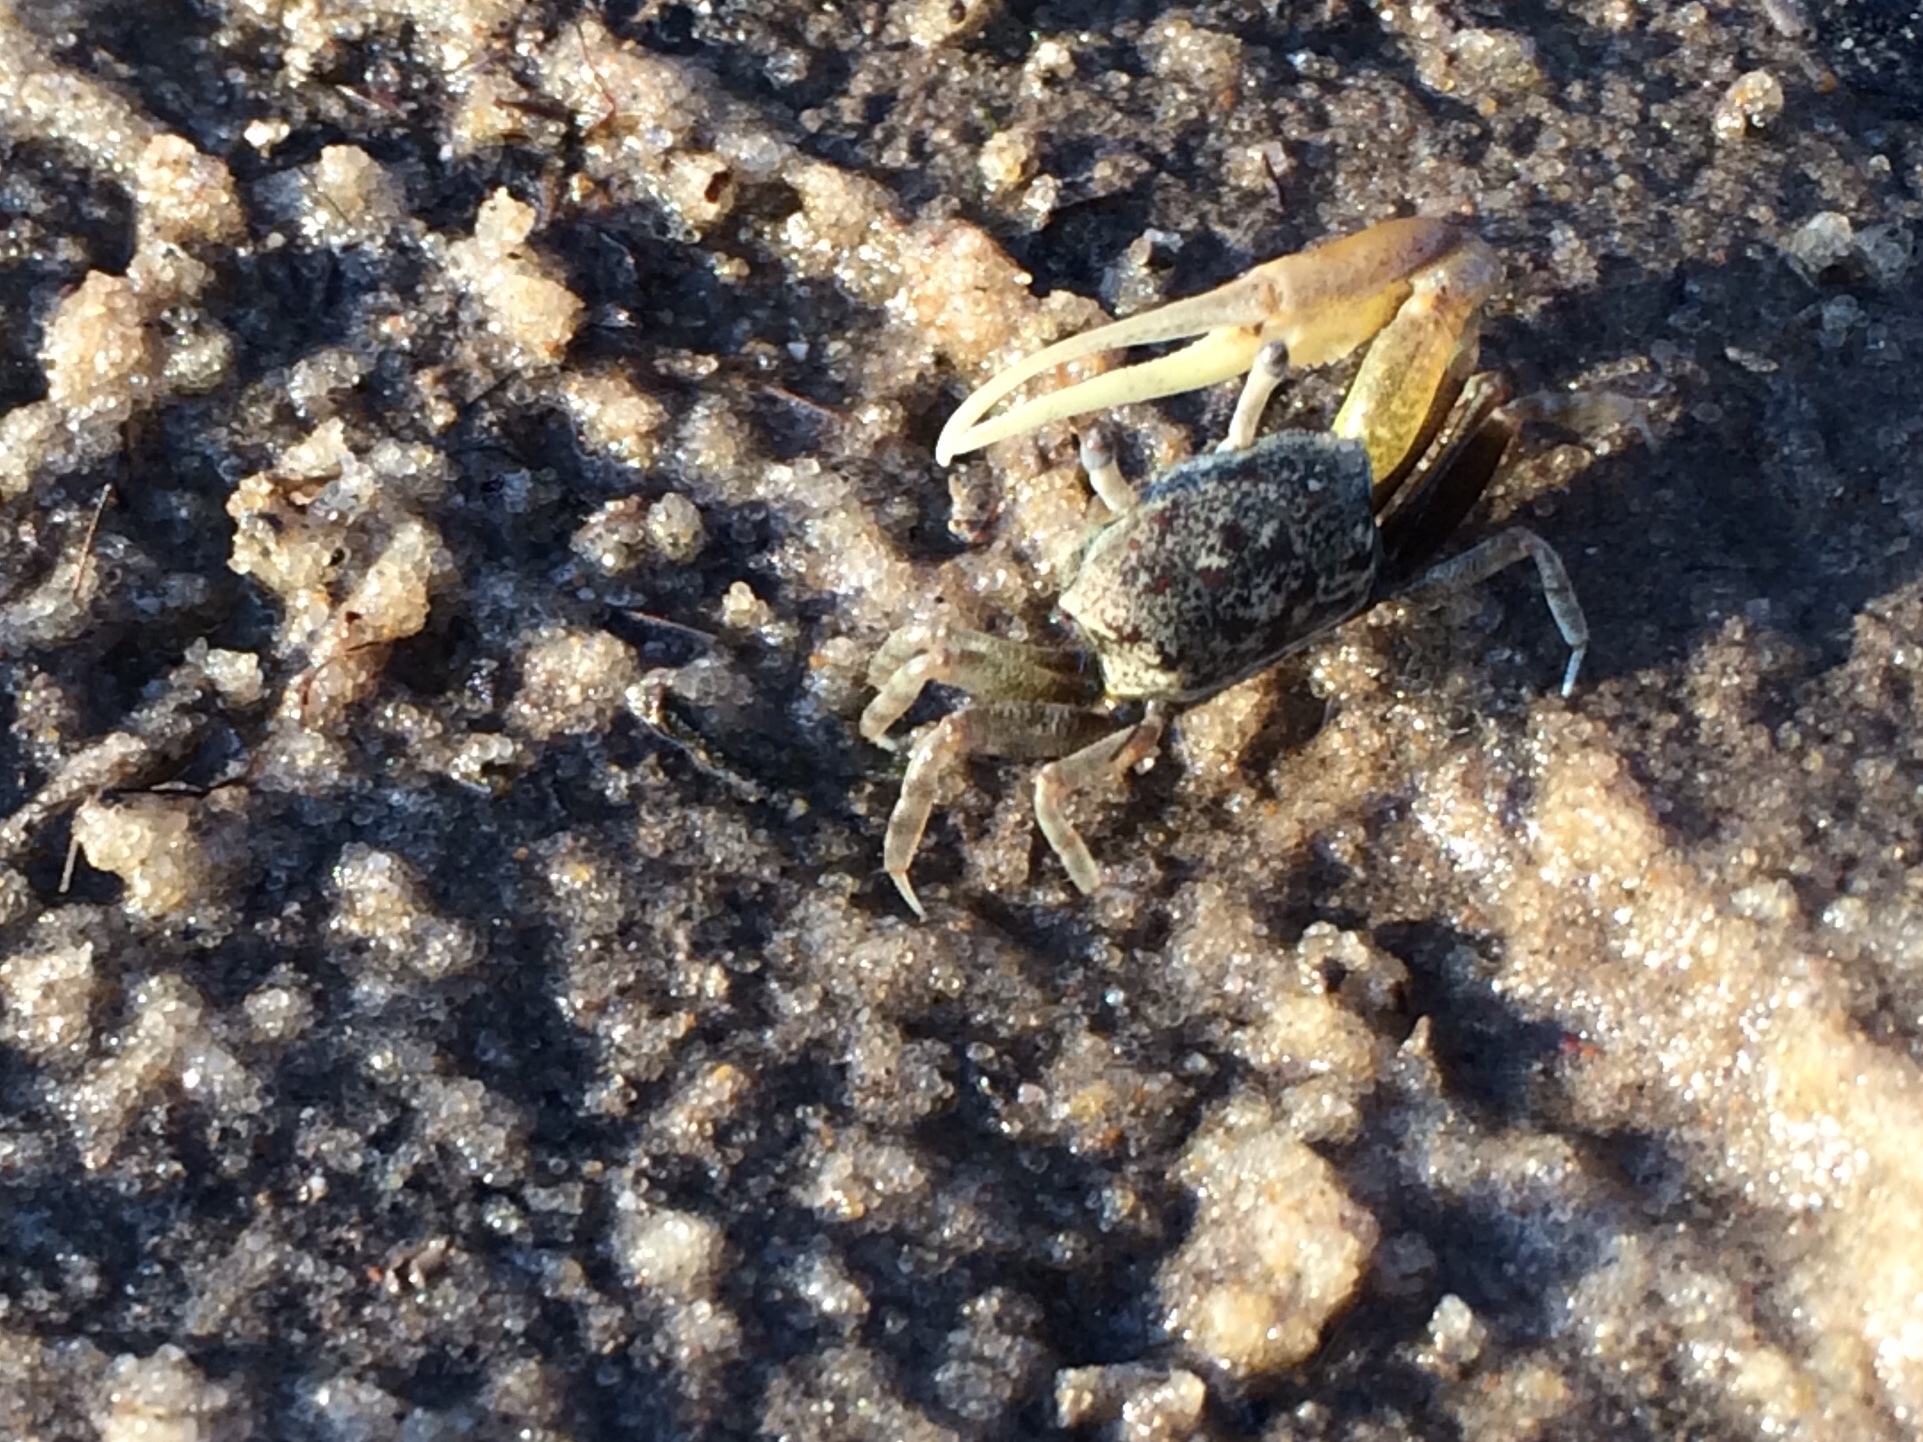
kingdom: Animalia
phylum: Arthropoda
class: Malacostraca
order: Decapoda
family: Ocypodidae
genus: Leptuca
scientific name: Leptuca leptodactyla
